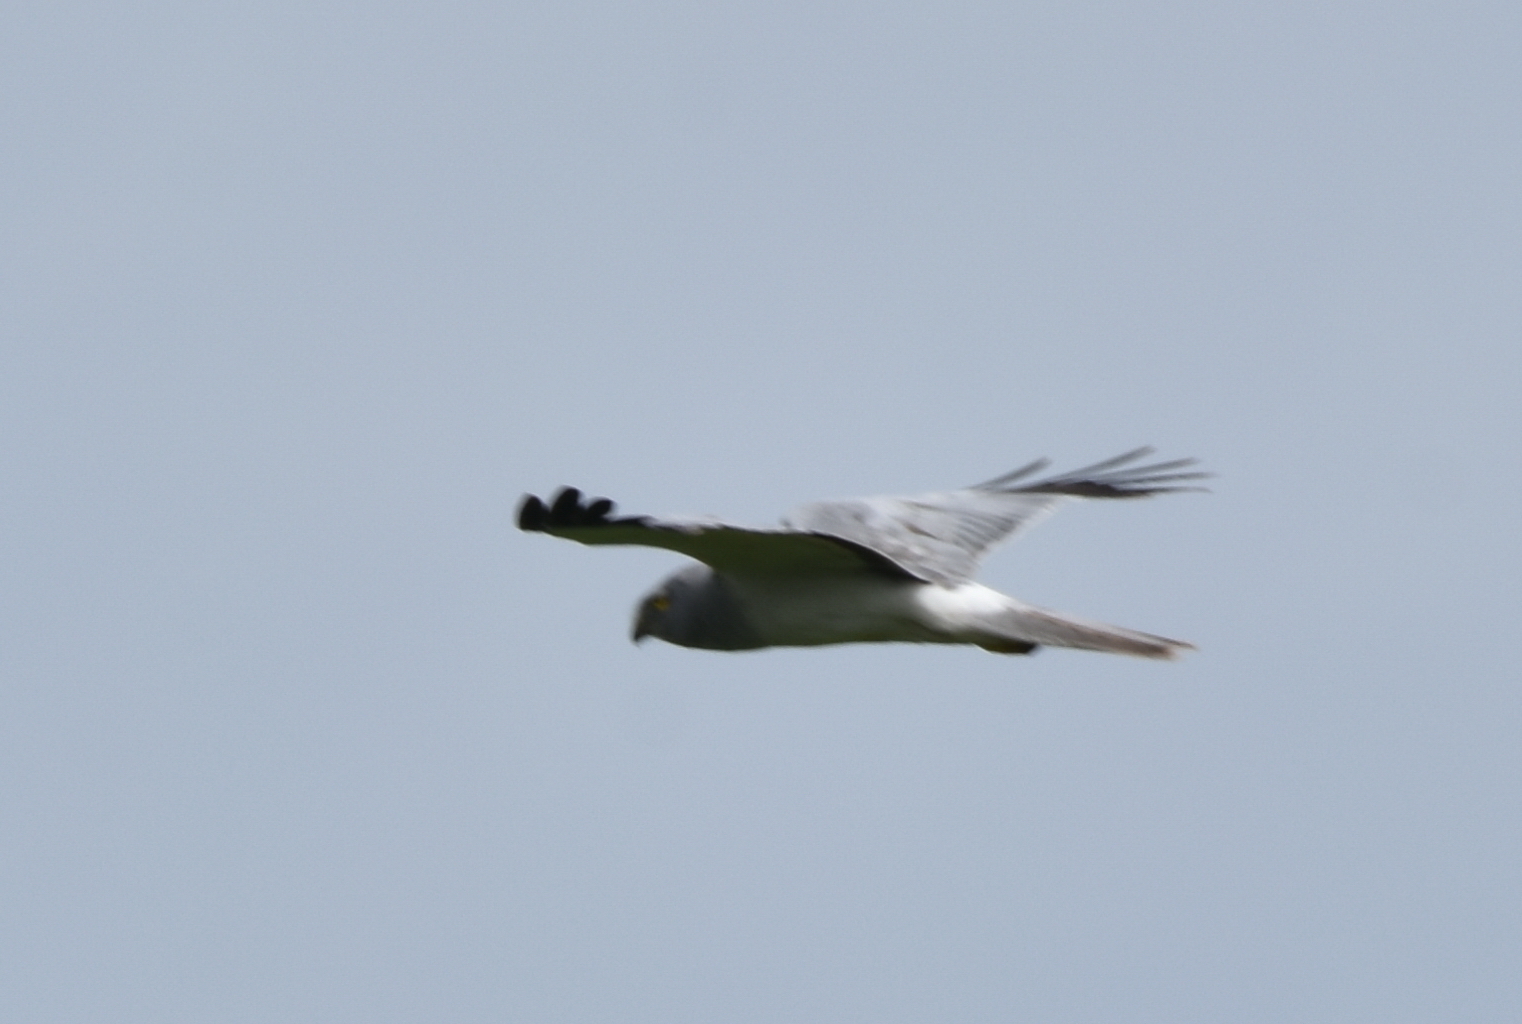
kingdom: Animalia
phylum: Chordata
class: Aves
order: Accipitriformes
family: Accipitridae
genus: Circus
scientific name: Circus cyaneus
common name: Hen harrier
